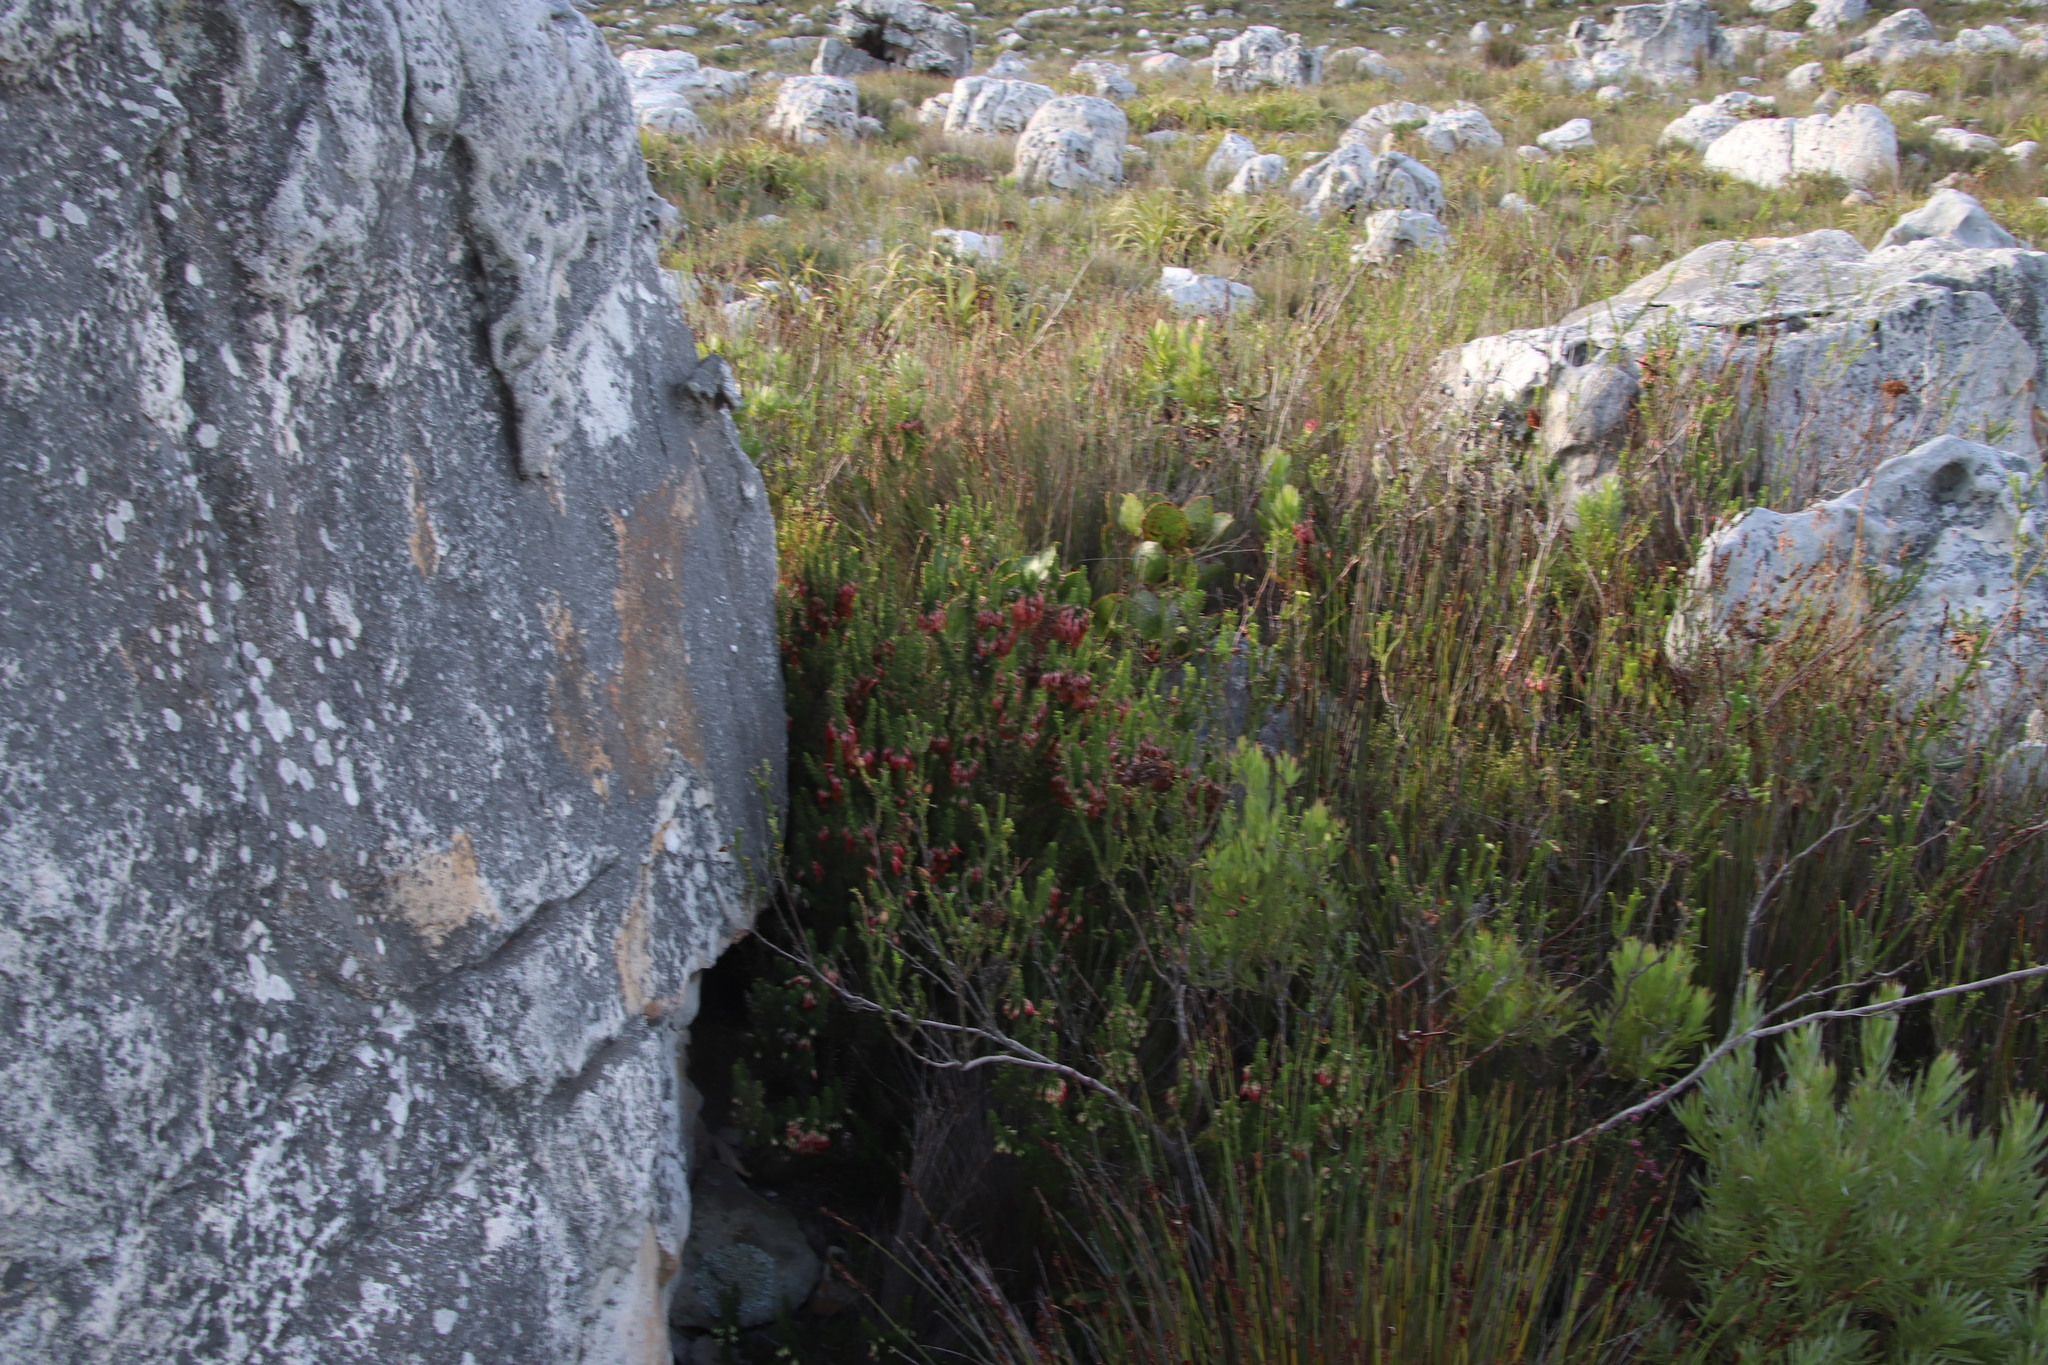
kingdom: Plantae
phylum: Tracheophyta
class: Magnoliopsida
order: Ericales
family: Ericaceae
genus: Erica
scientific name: Erica coccinea
